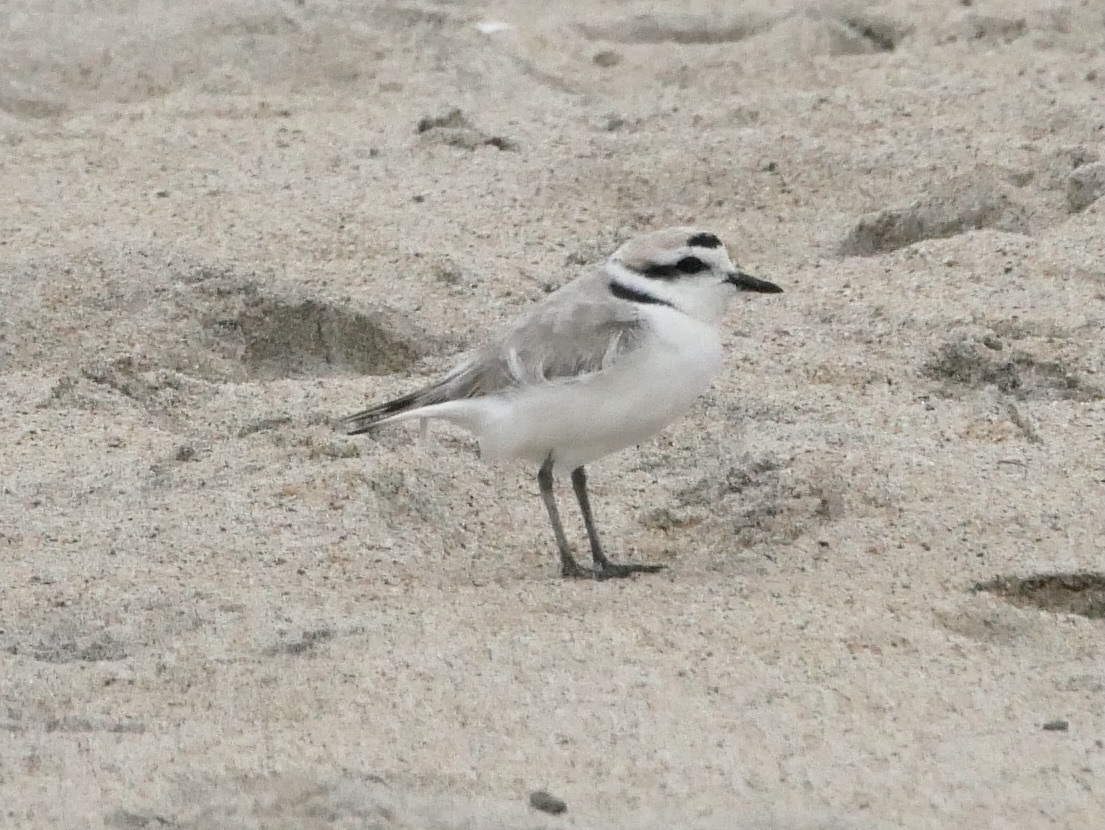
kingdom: Animalia
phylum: Chordata
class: Aves
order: Charadriiformes
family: Charadriidae
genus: Anarhynchus
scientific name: Anarhynchus
